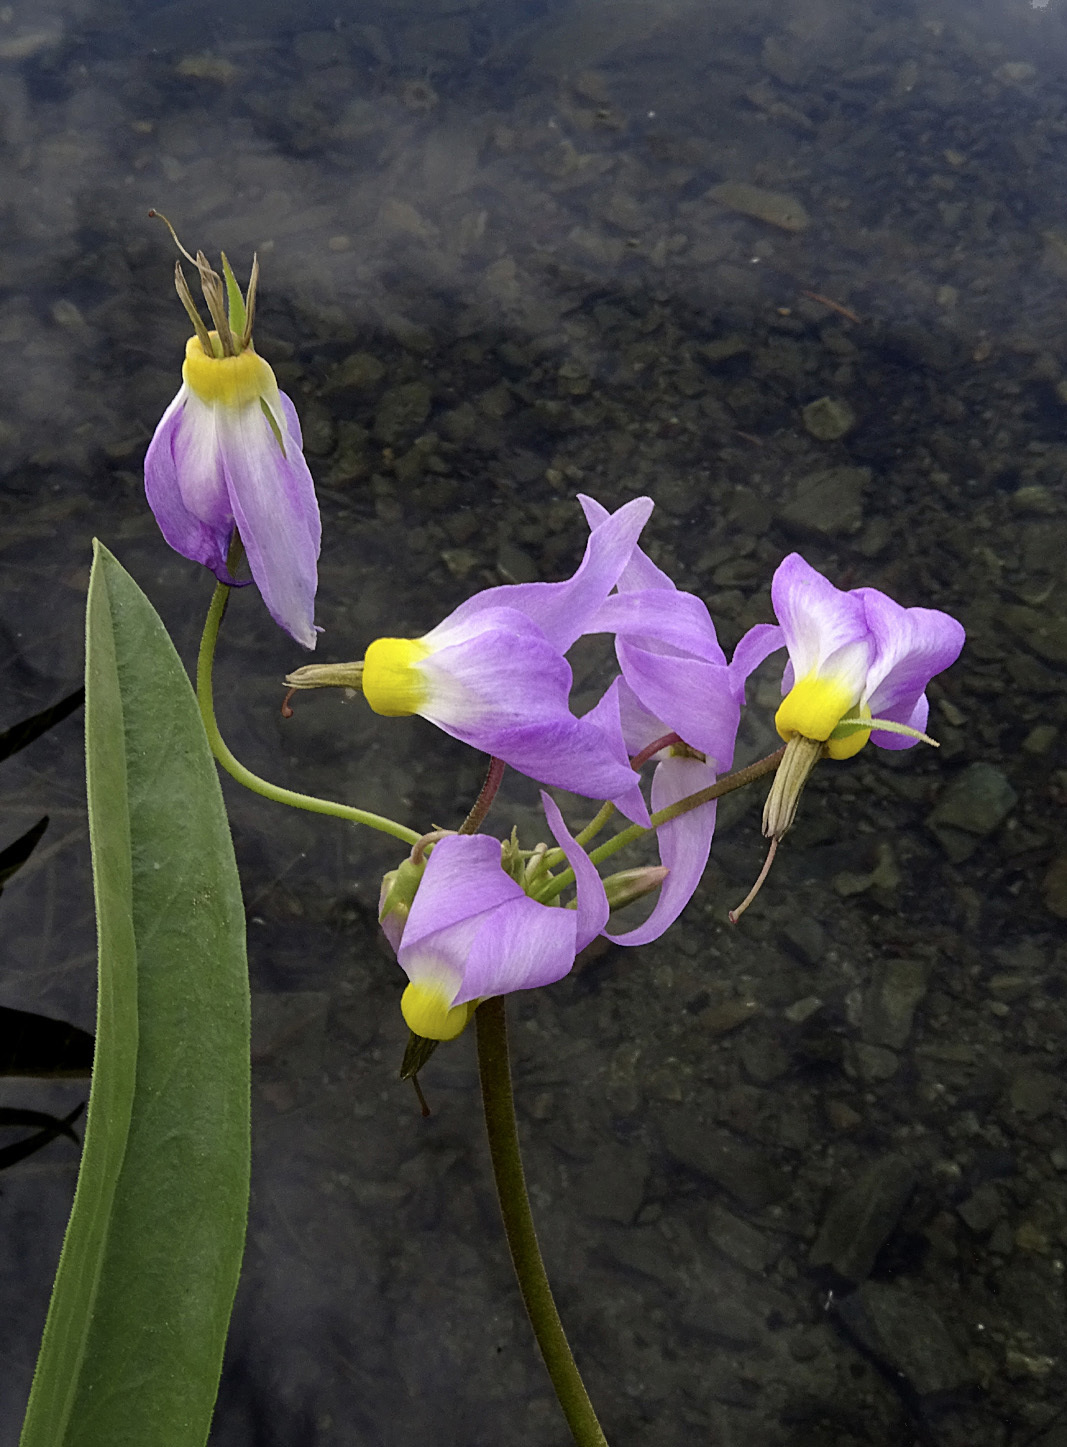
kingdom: Plantae
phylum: Tracheophyta
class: Magnoliopsida
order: Ericales
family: Primulaceae
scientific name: Primulaceae
